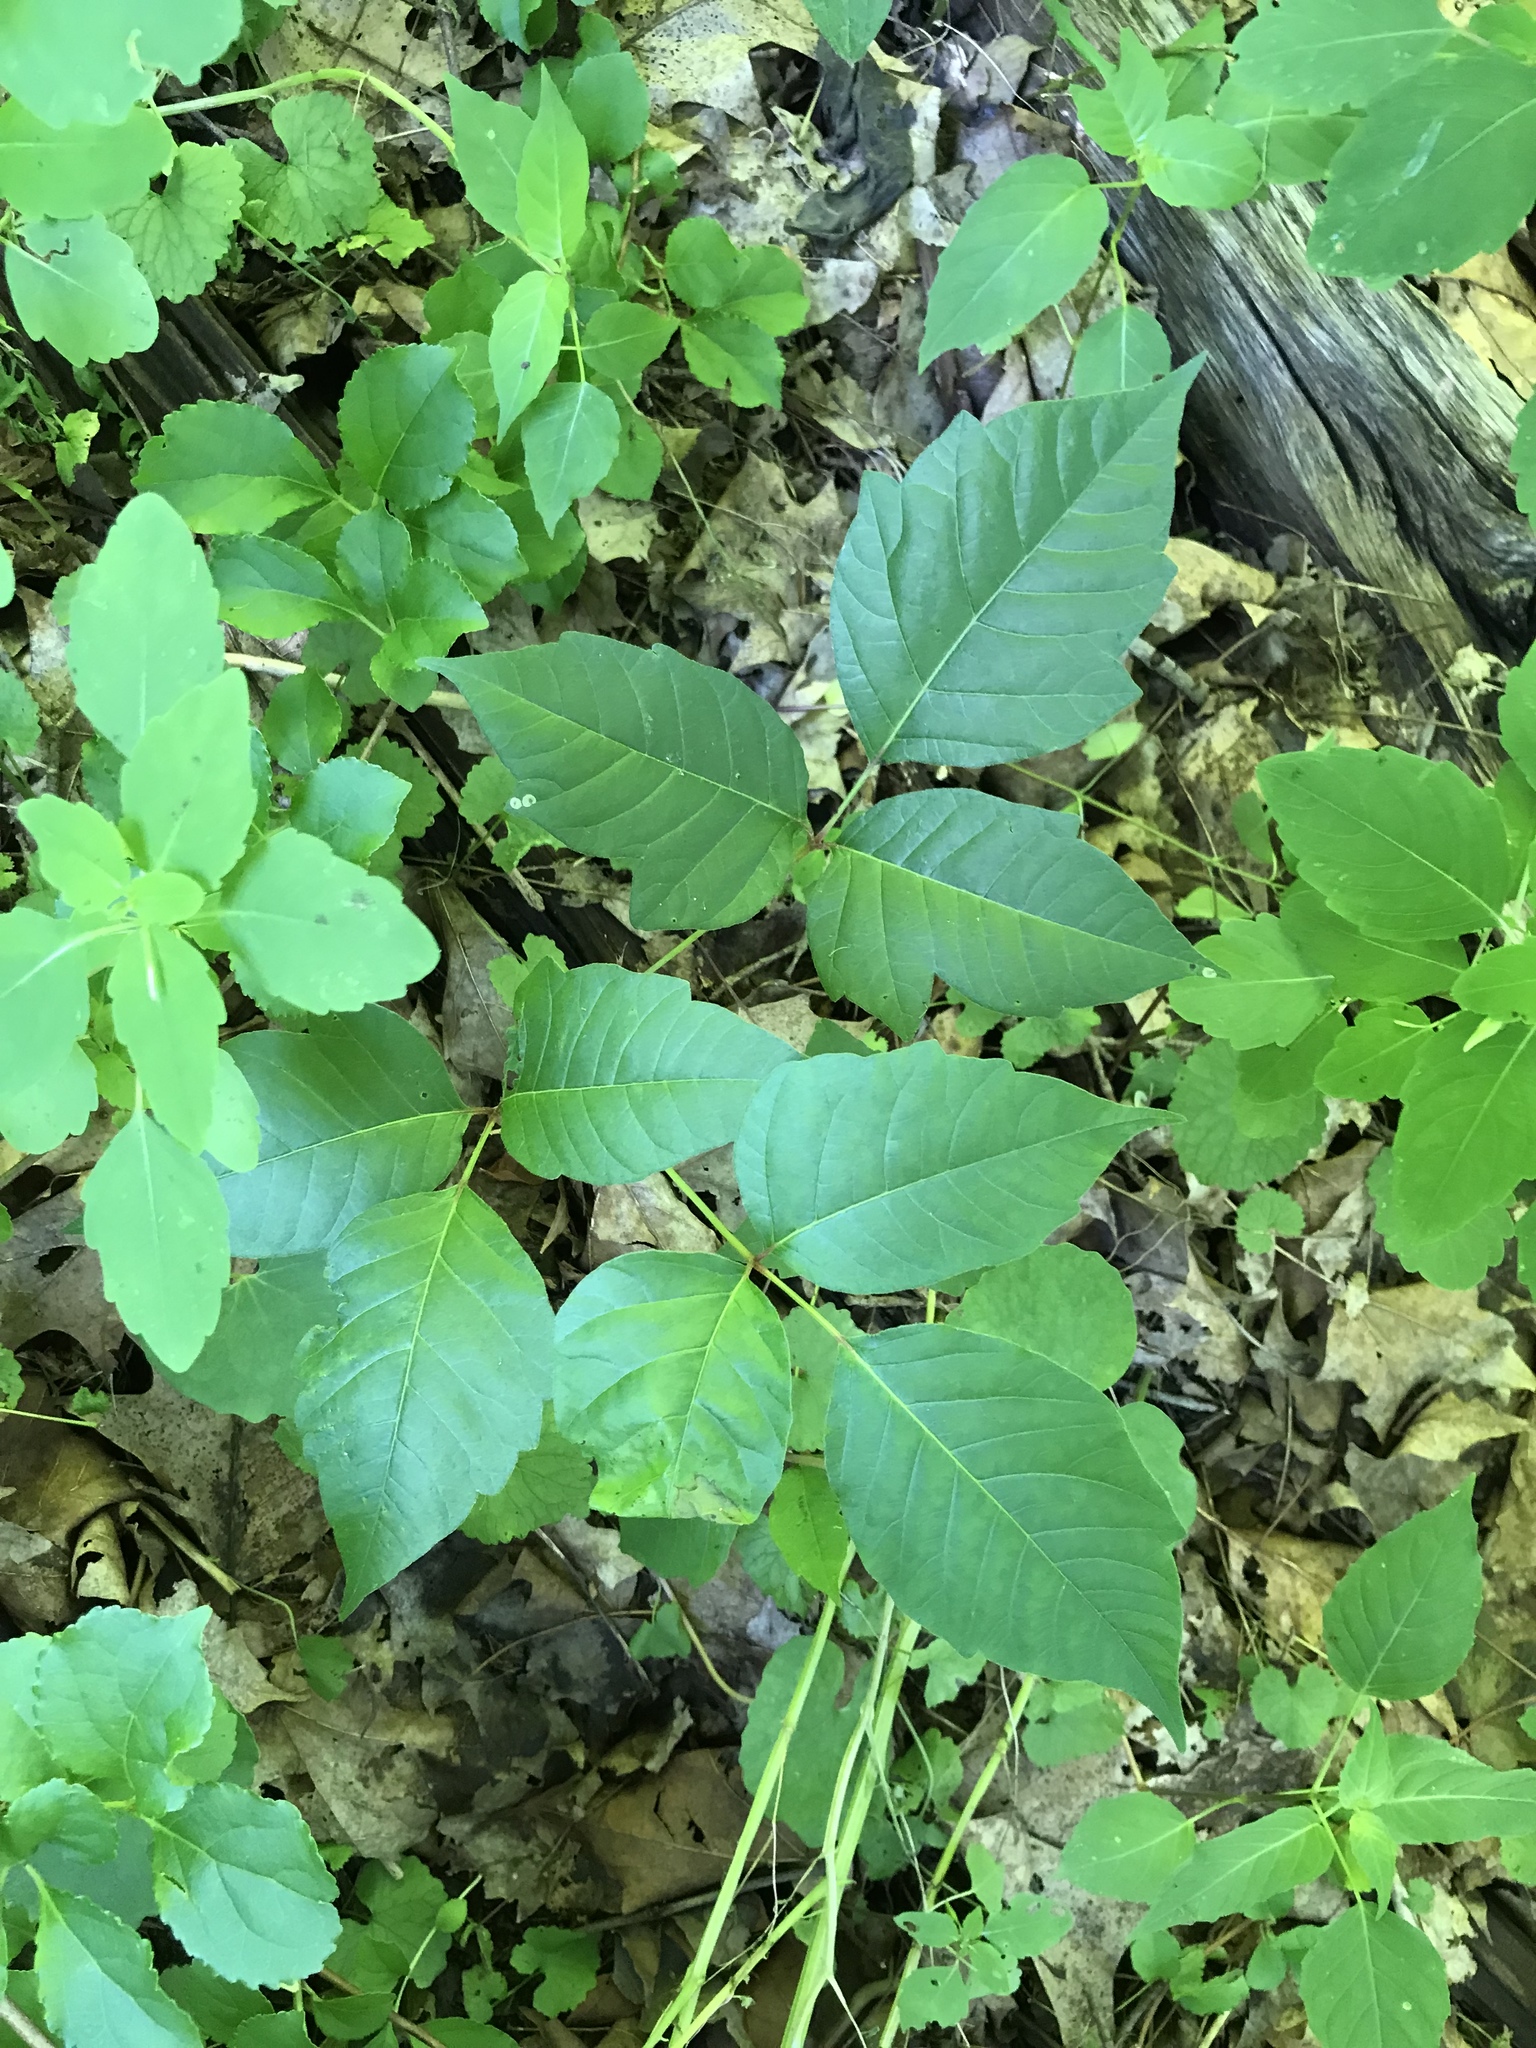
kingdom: Plantae
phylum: Tracheophyta
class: Magnoliopsida
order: Sapindales
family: Anacardiaceae
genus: Toxicodendron
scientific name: Toxicodendron radicans
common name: Poison ivy
